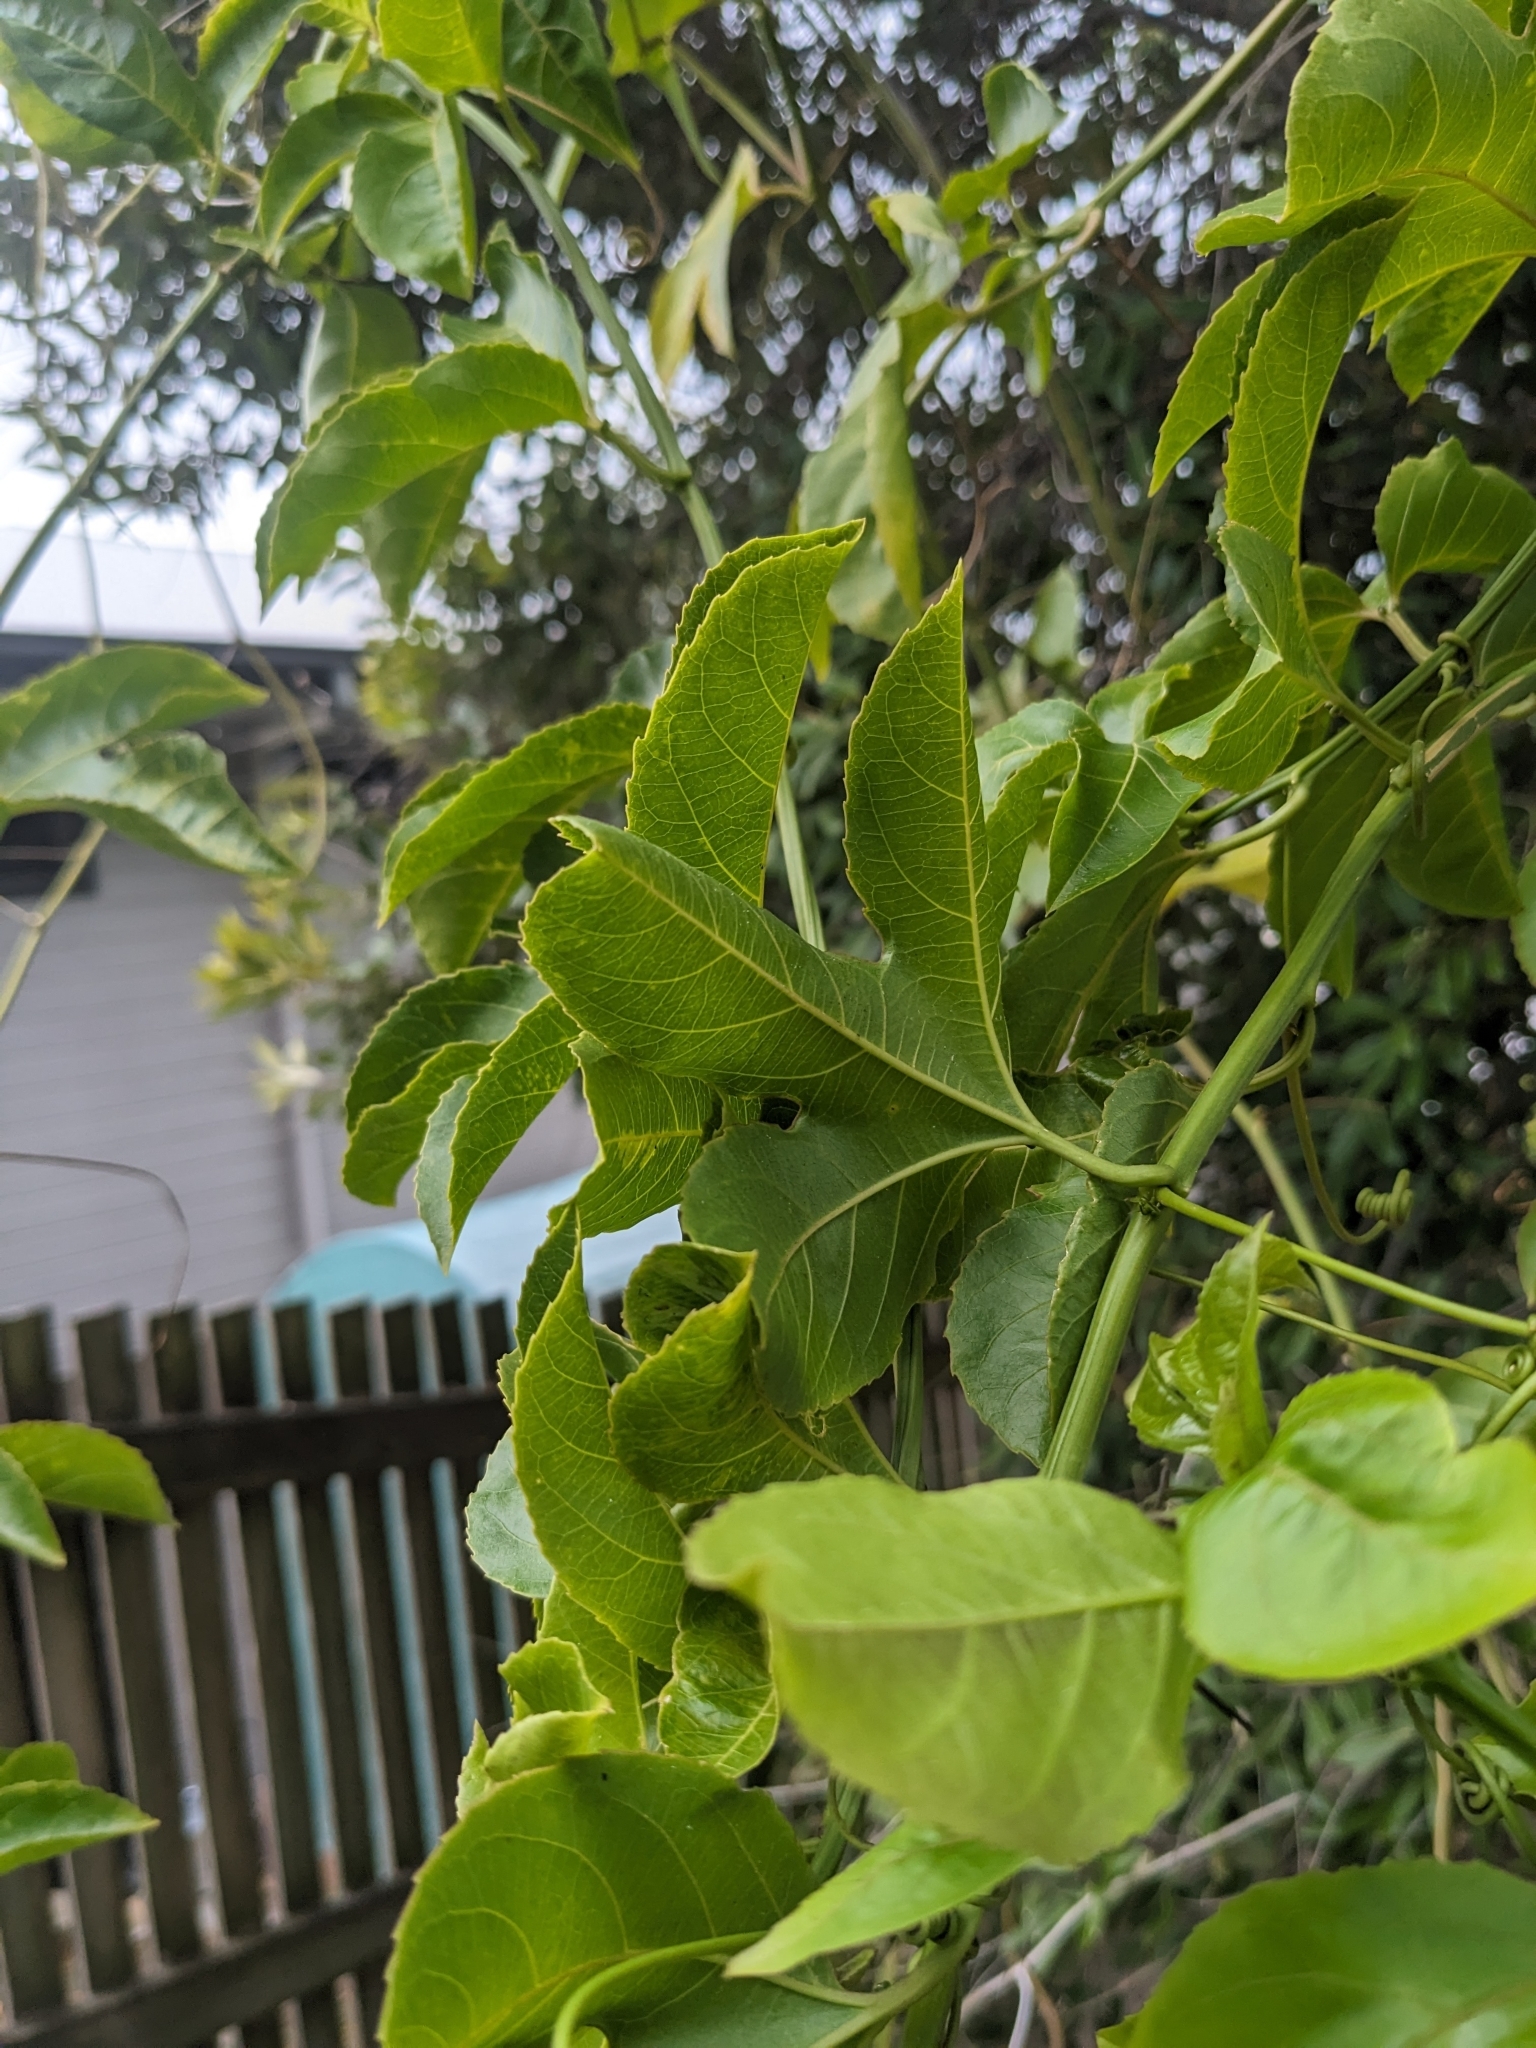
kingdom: Plantae
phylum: Tracheophyta
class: Magnoliopsida
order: Malpighiales
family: Passifloraceae
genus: Passiflora
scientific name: Passiflora edulis
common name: Purple granadilla
